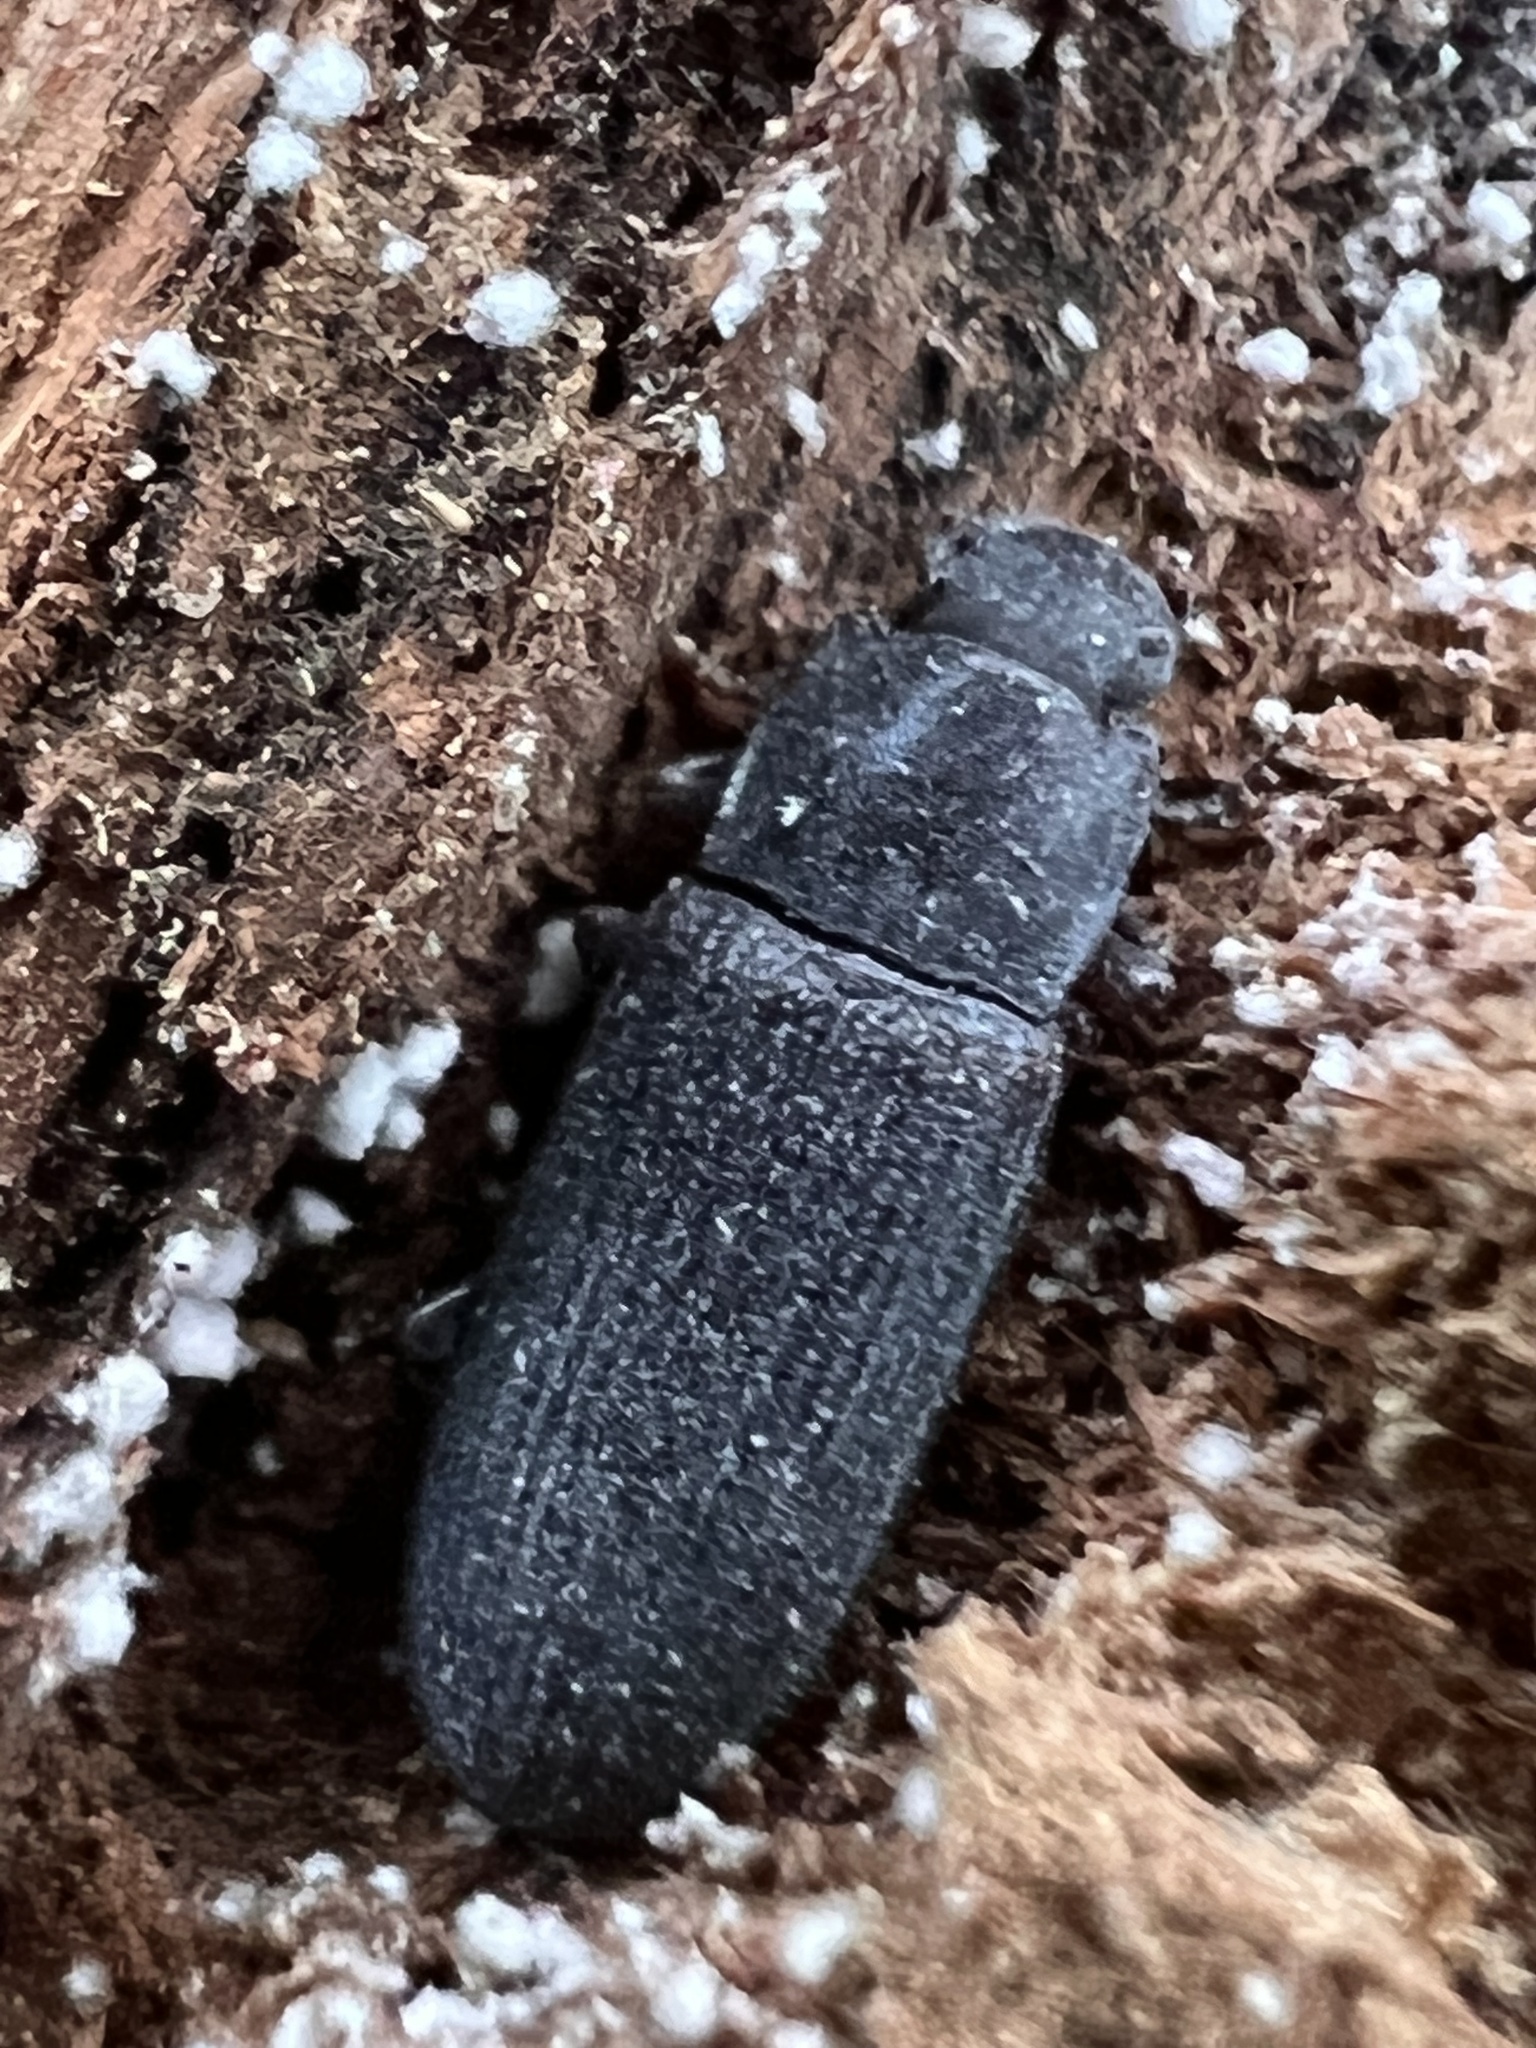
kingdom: Animalia
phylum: Arthropoda
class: Insecta
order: Coleoptera
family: Tenebrionidae
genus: Idiobates
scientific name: Idiobates castaneus
